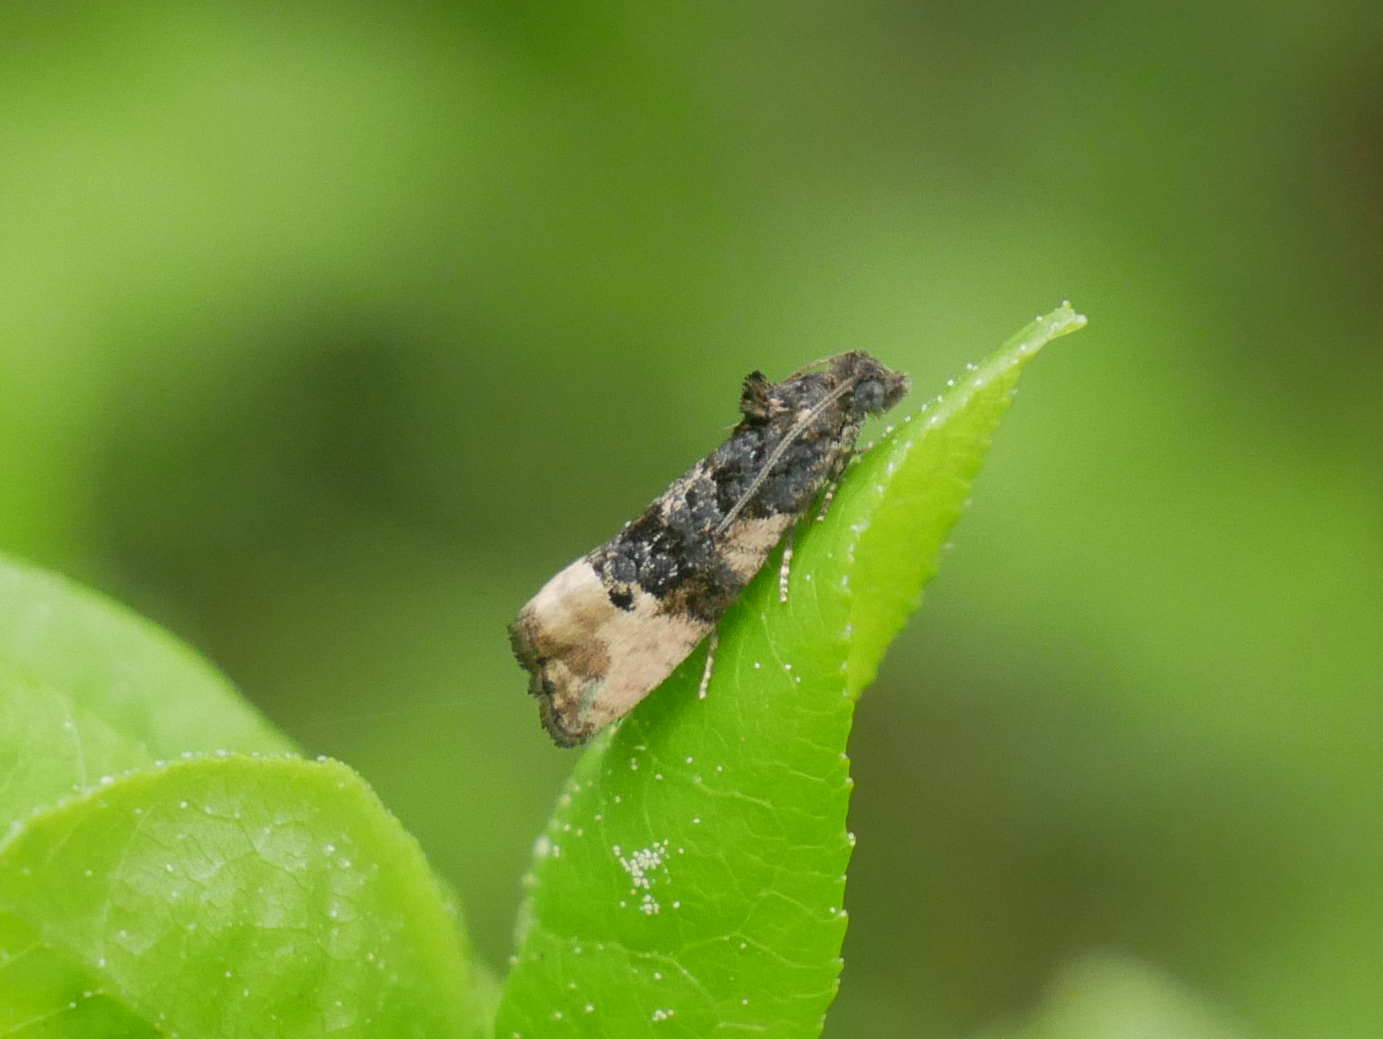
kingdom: Animalia
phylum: Arthropoda
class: Insecta
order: Lepidoptera
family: Tortricidae
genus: Metendothenia
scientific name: Metendothenia atropunctana
